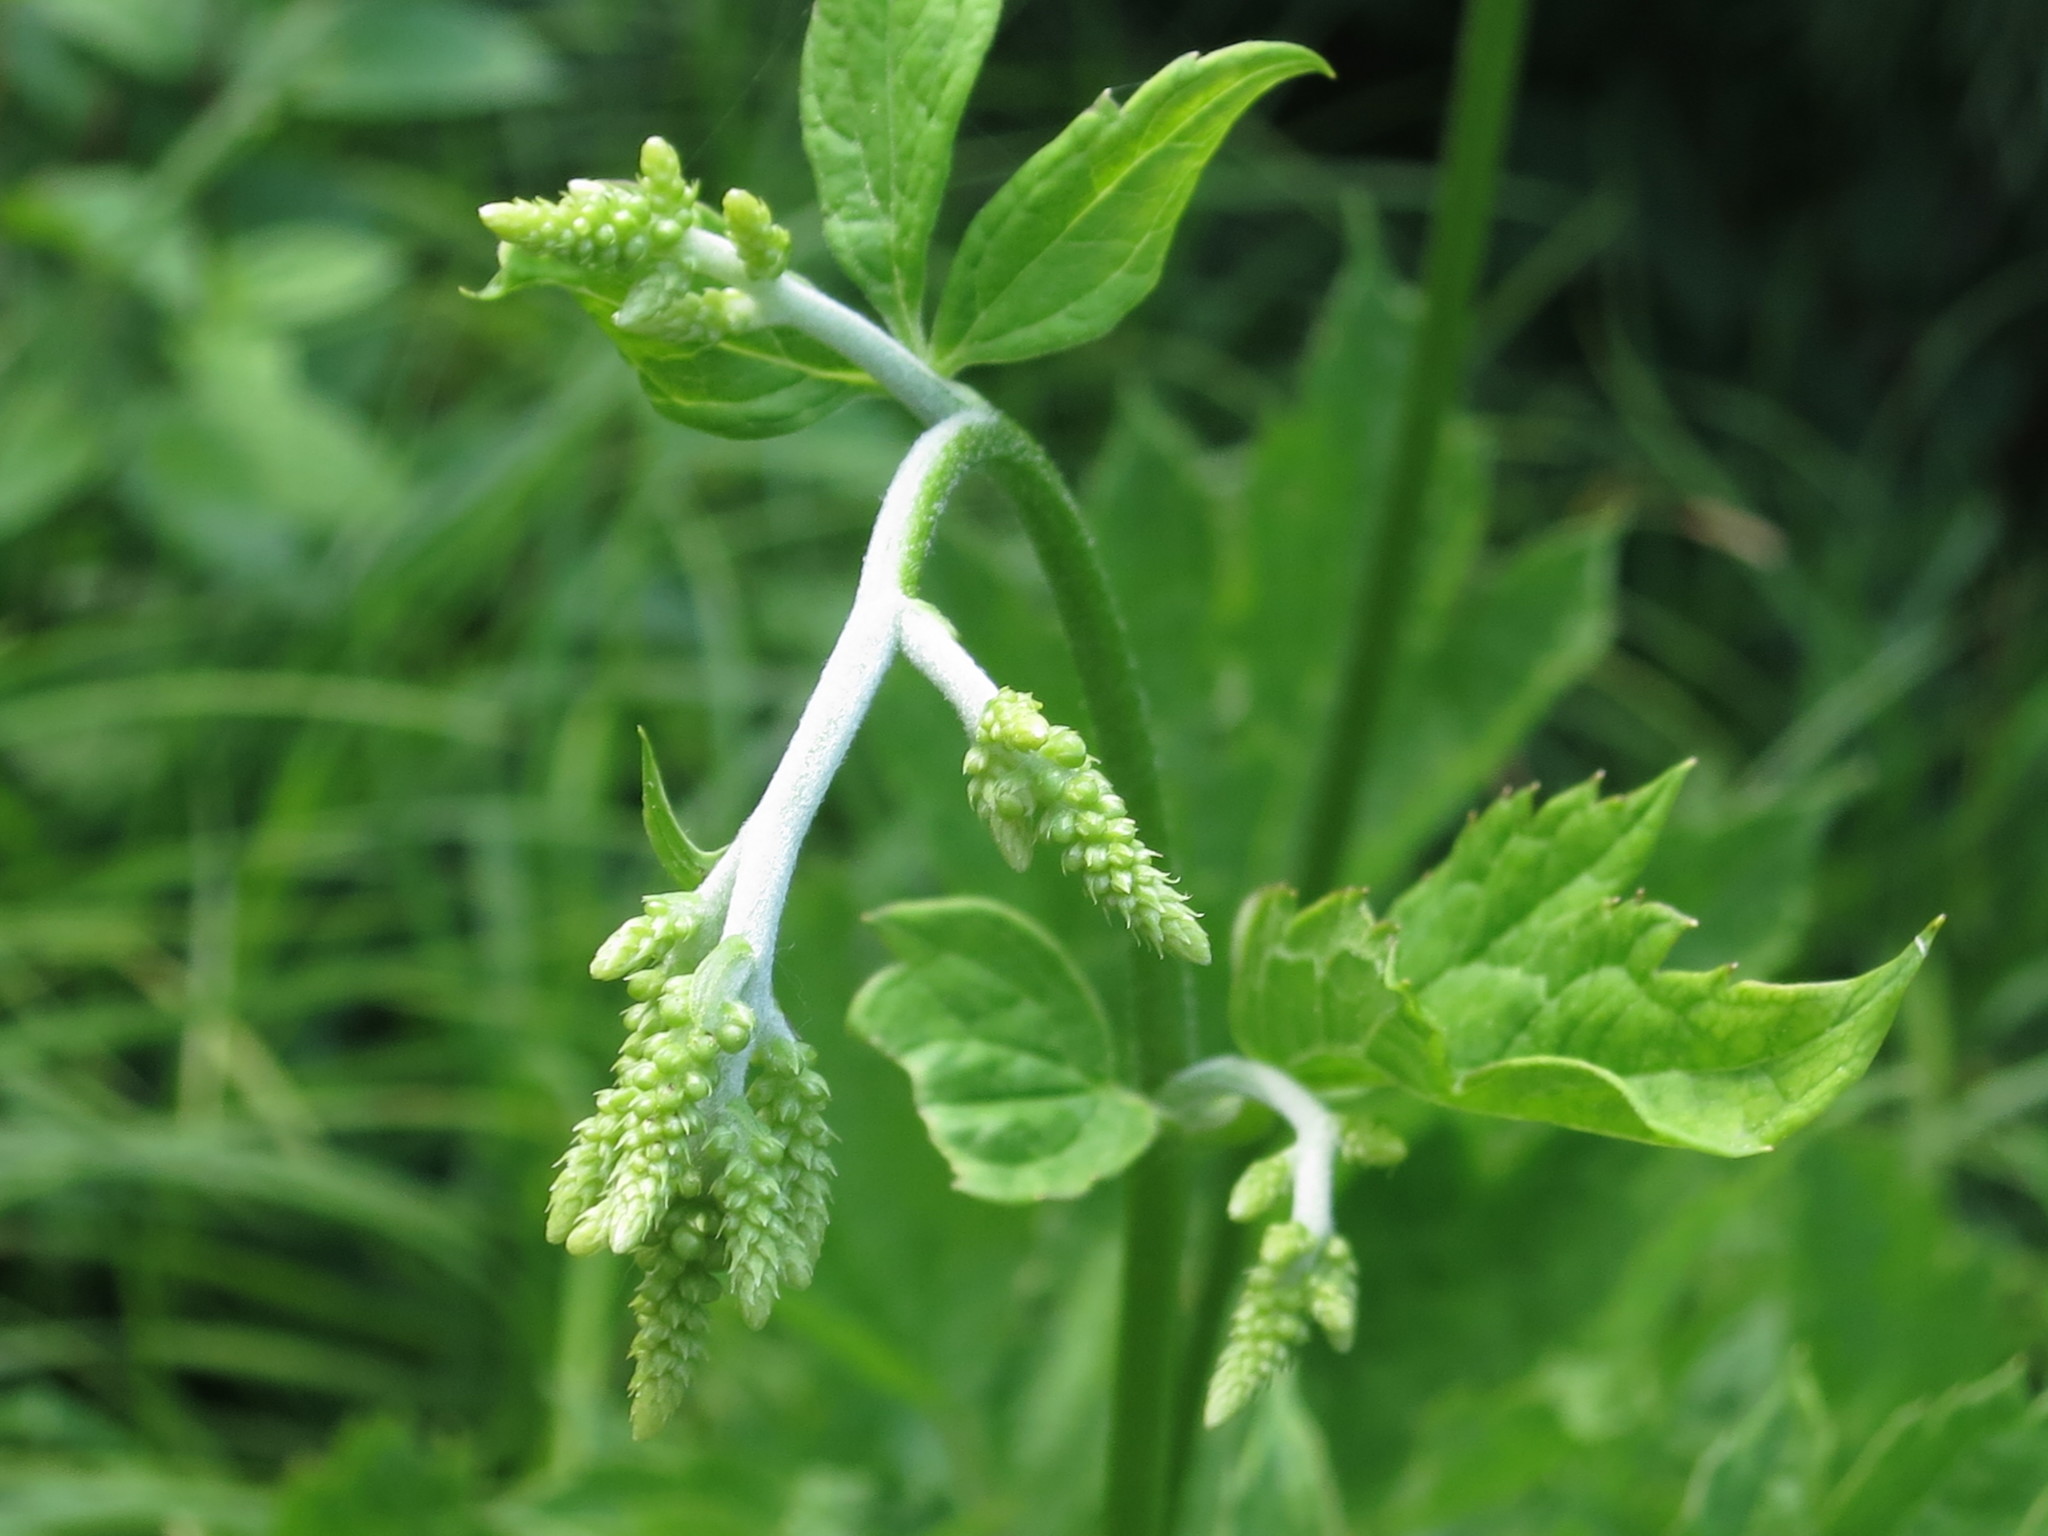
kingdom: Plantae
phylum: Tracheophyta
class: Magnoliopsida
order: Ranunculales
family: Ranunculaceae
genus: Actaea
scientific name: Actaea dahurica
